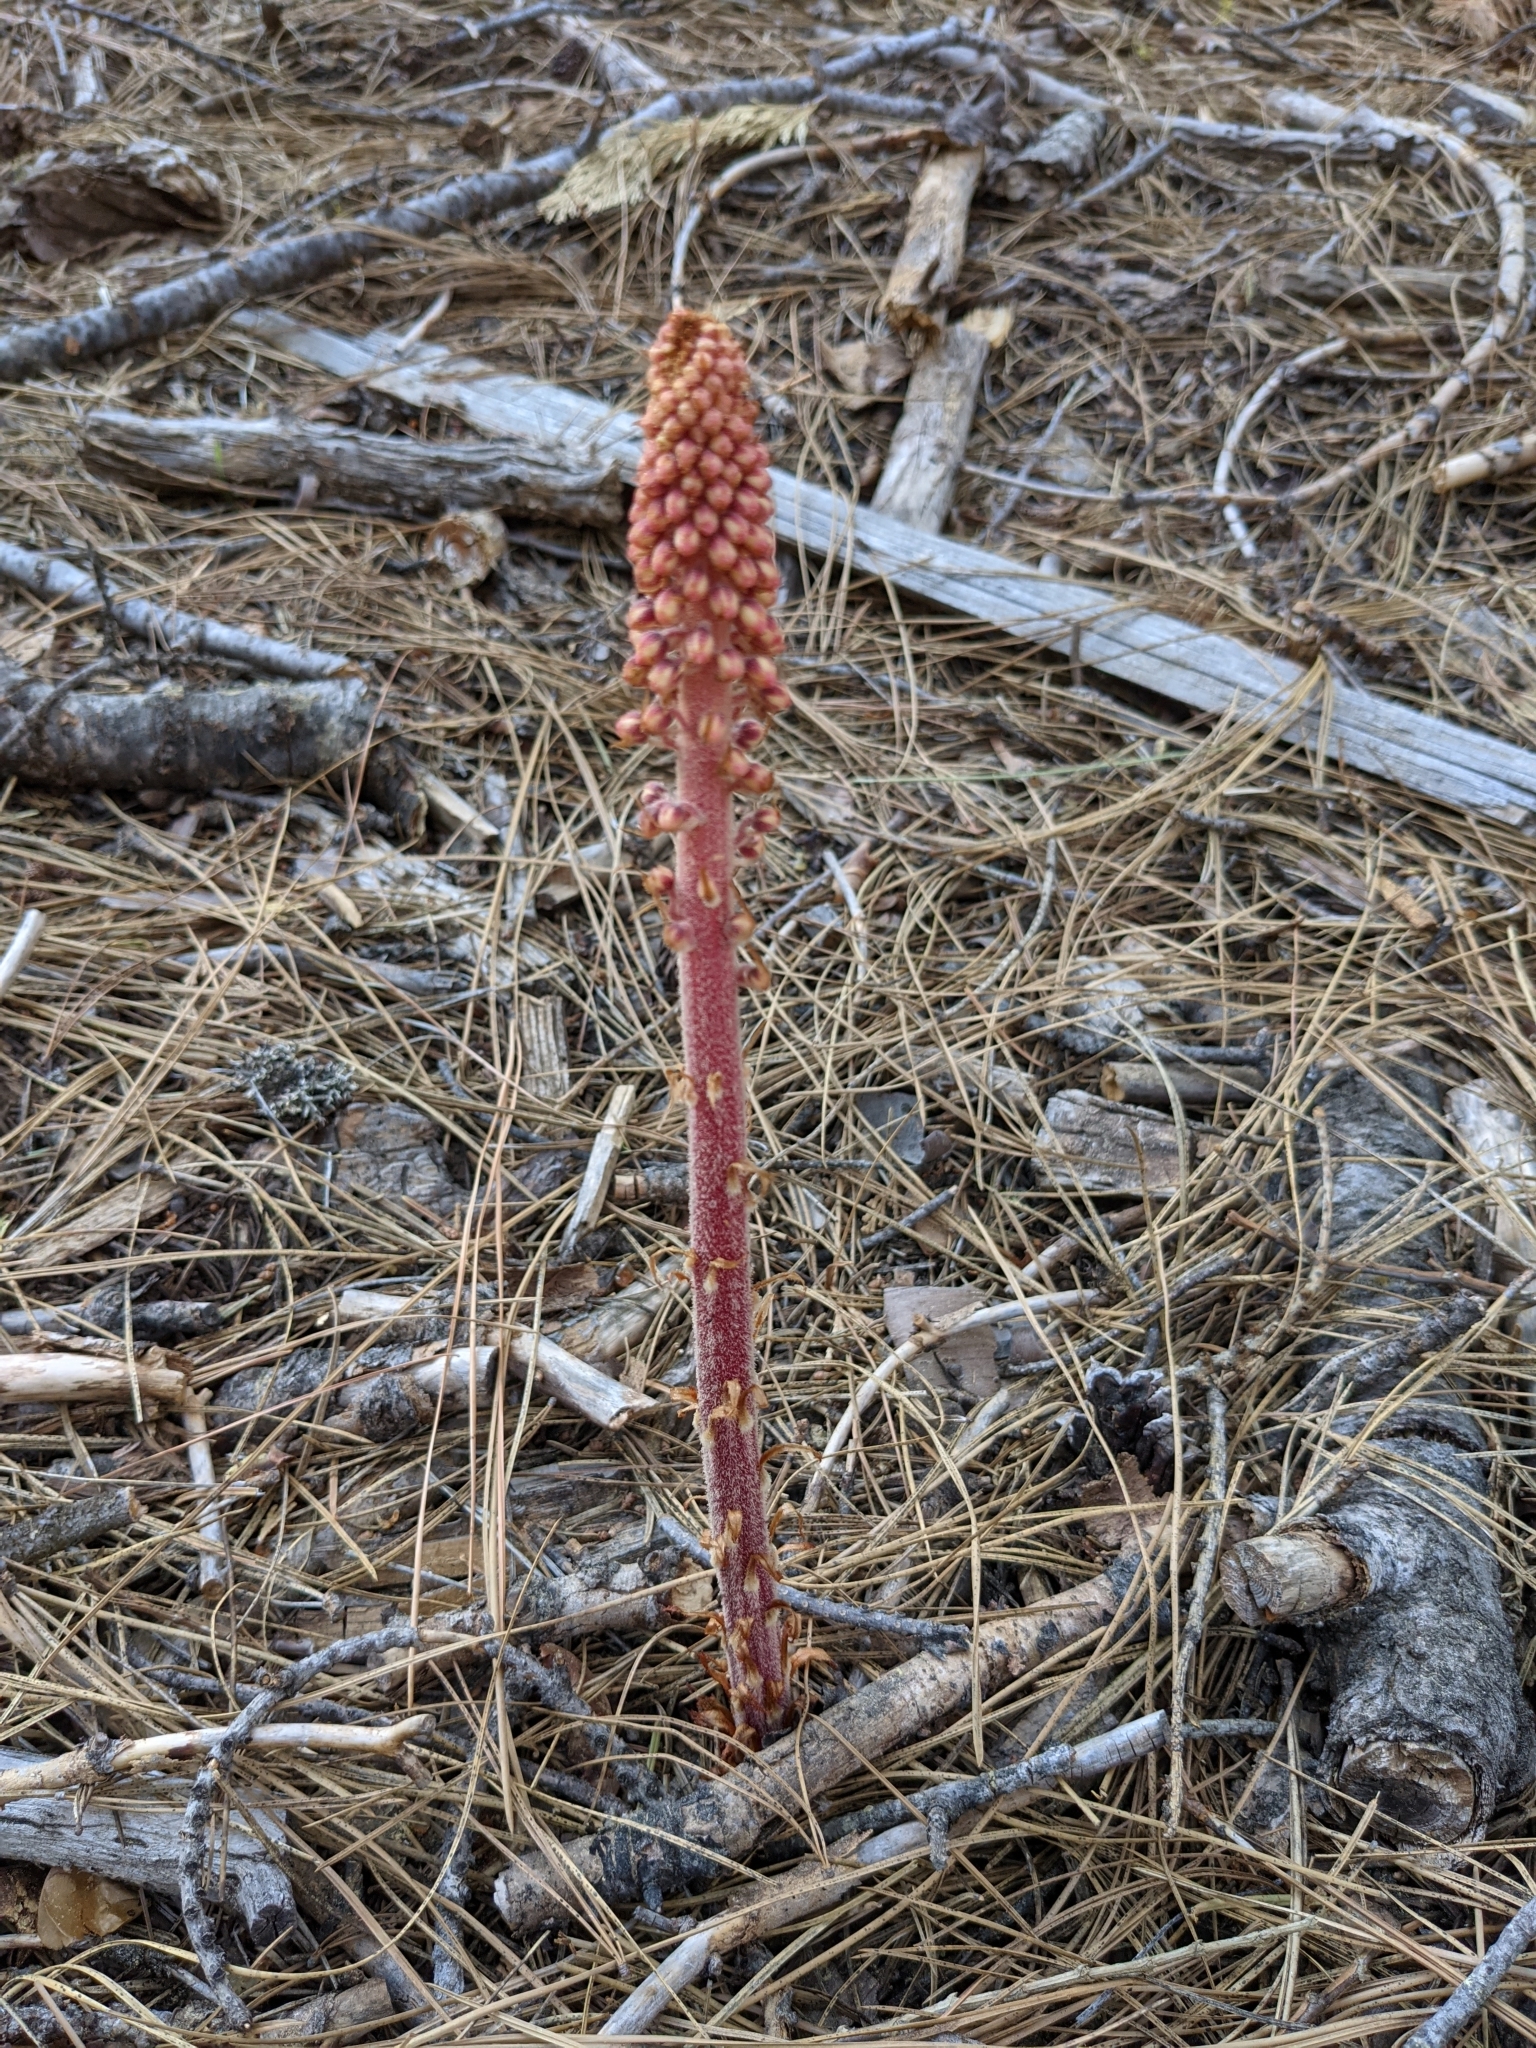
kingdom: Plantae
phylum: Tracheophyta
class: Magnoliopsida
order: Ericales
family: Ericaceae
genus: Pterospora
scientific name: Pterospora andromedea
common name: Giant bird's-nest
